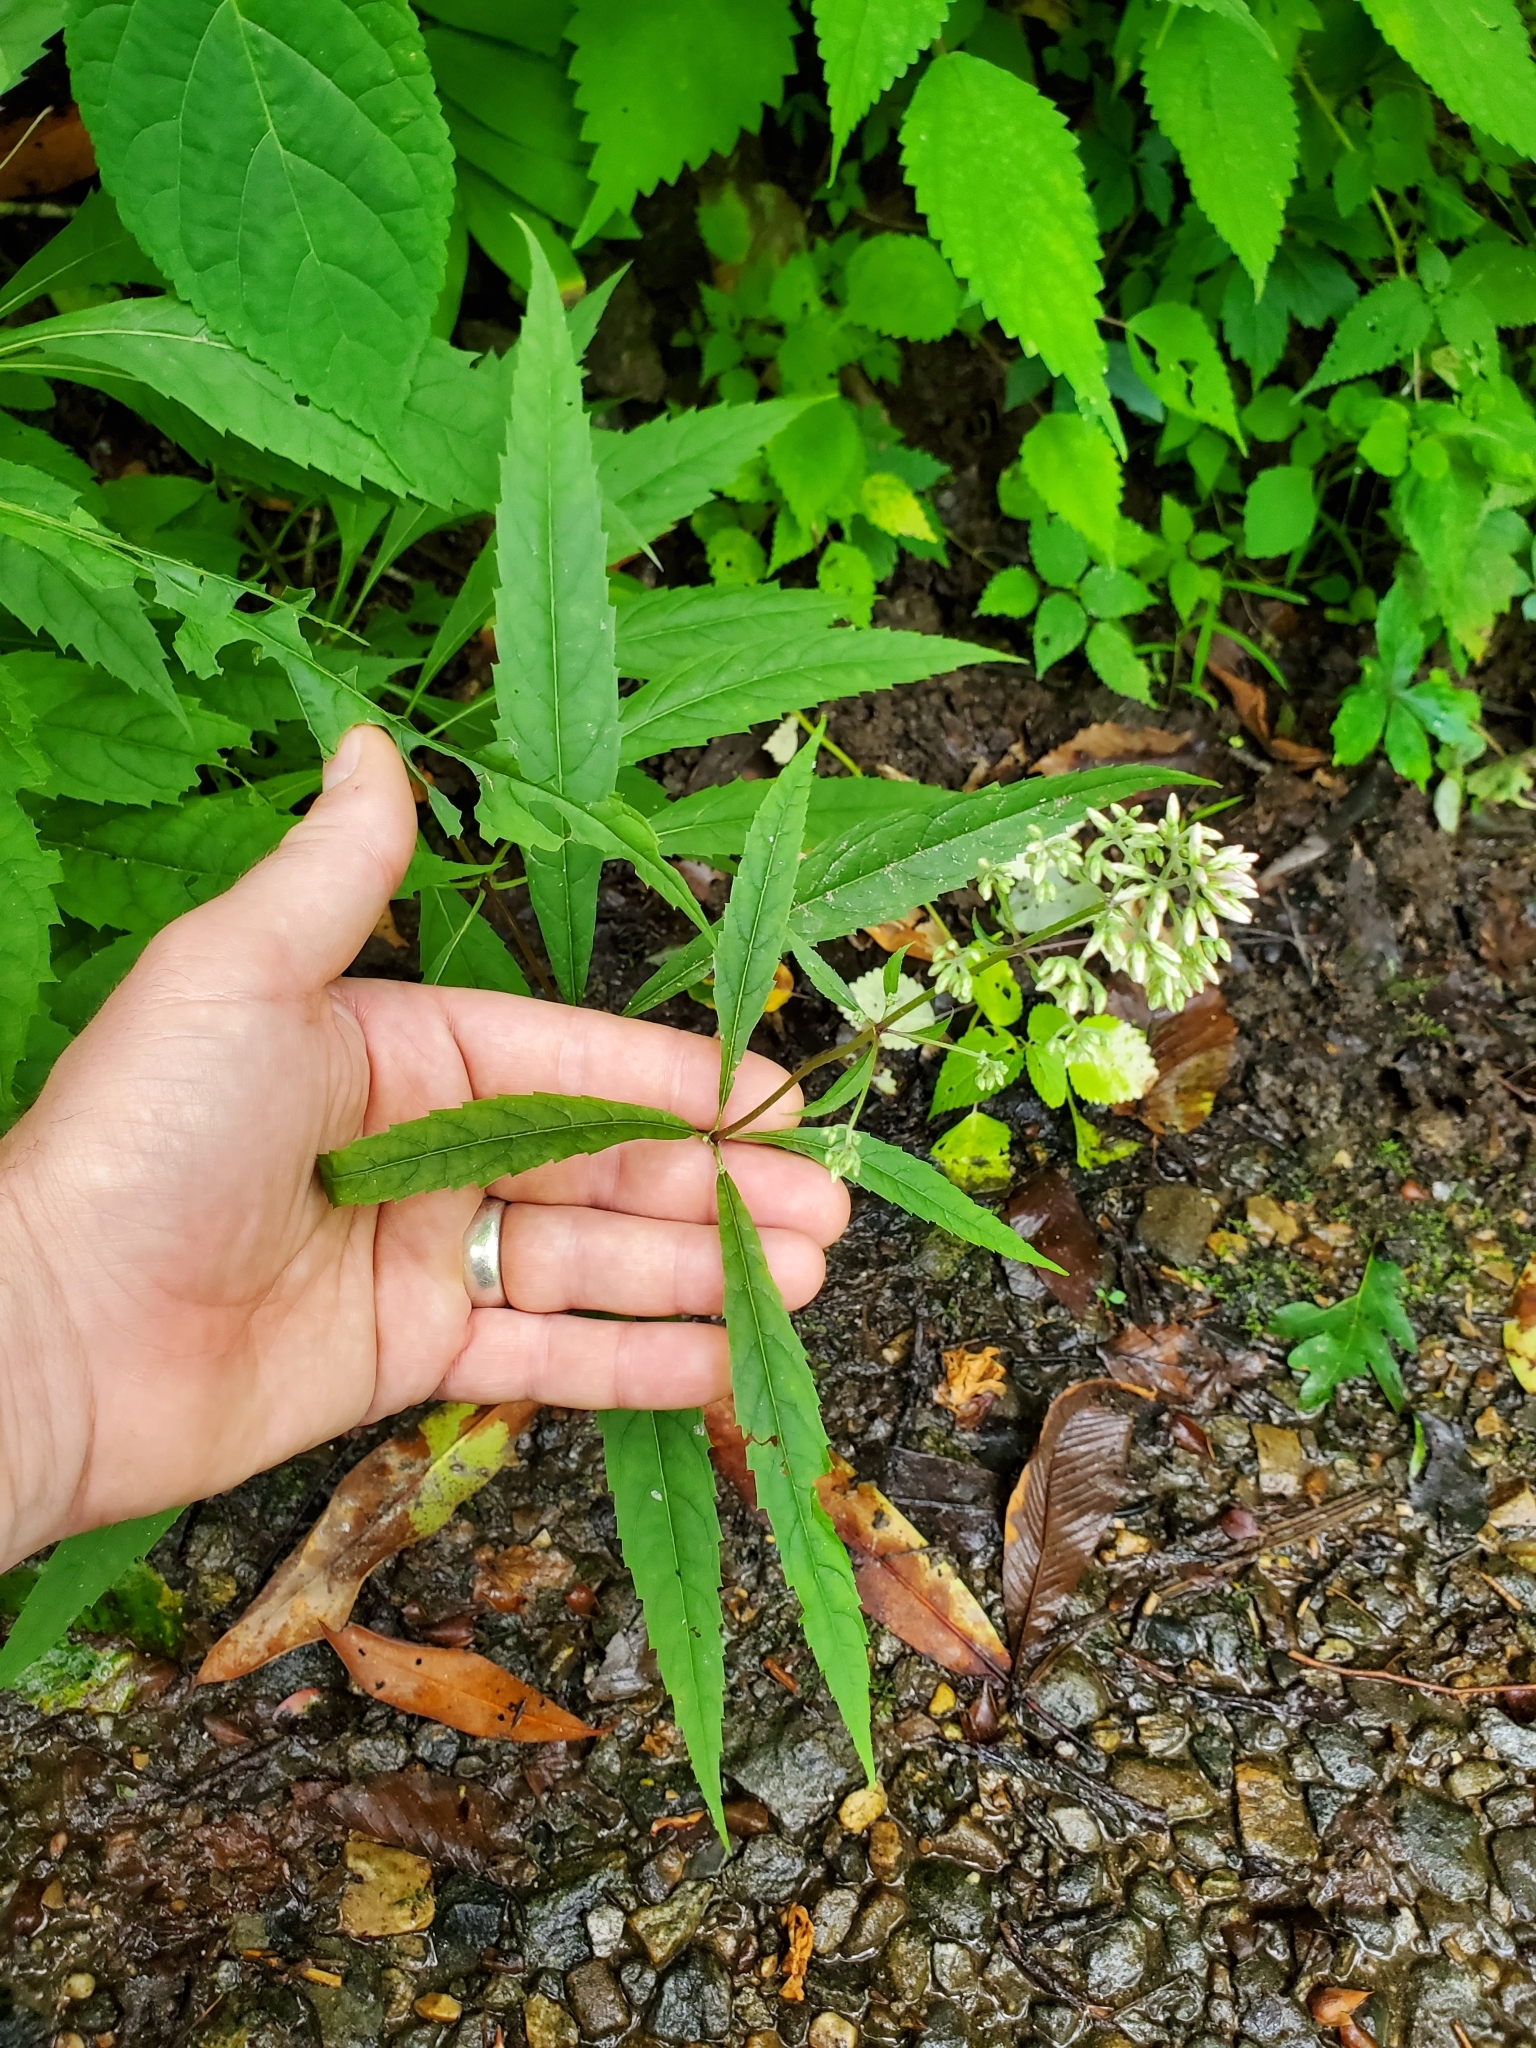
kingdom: Plantae
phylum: Tracheophyta
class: Magnoliopsida
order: Asterales
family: Asteraceae
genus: Eutrochium
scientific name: Eutrochium purpureum
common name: Gravelroot
